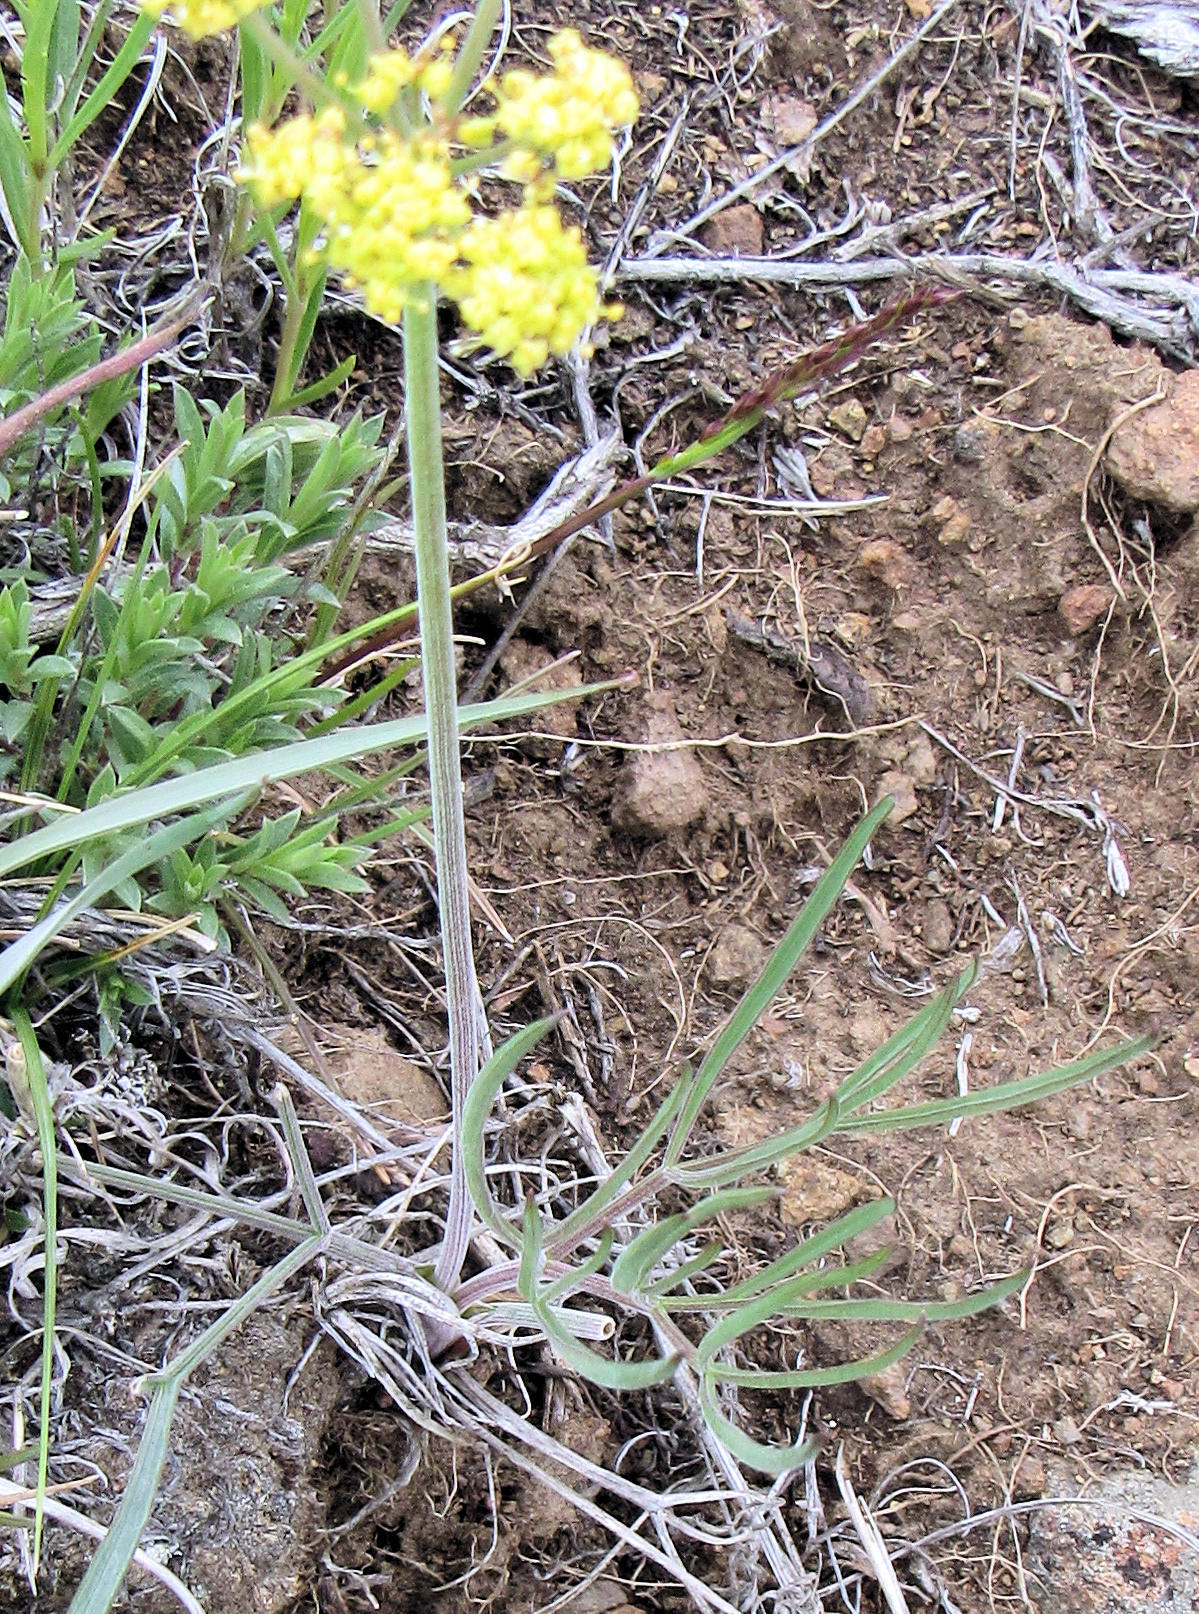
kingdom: Plantae
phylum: Tracheophyta
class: Magnoliopsida
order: Apiales
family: Apiaceae
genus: Lomatium
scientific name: Lomatium triternatum
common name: Ternate lomatium
